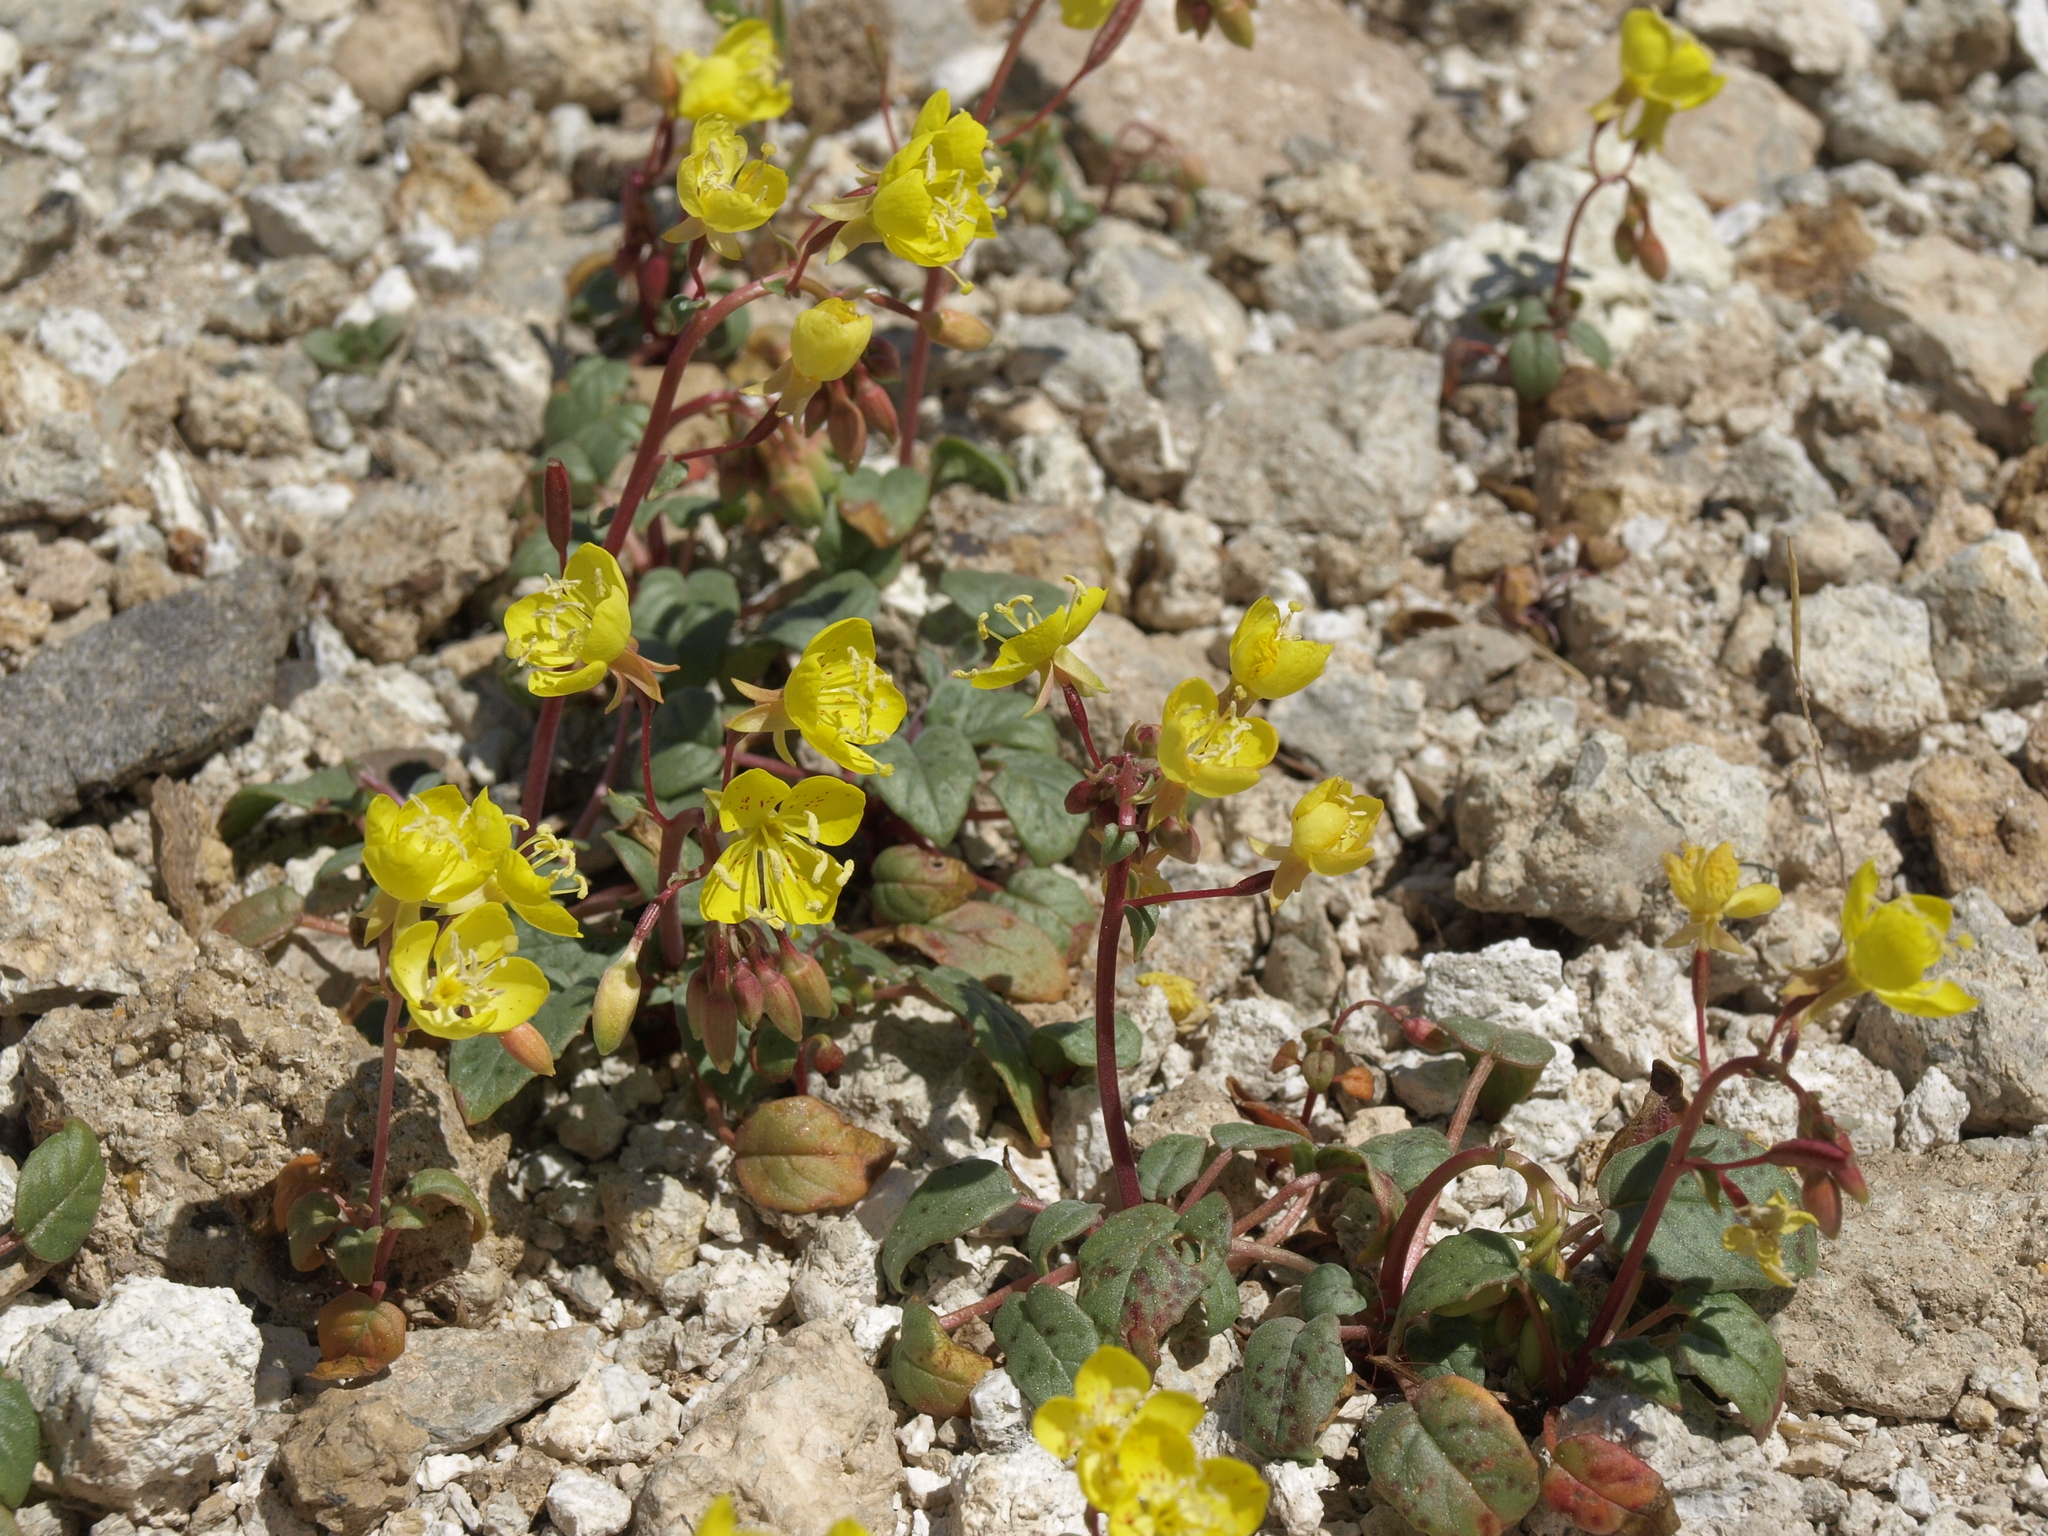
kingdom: Plantae
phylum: Tracheophyta
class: Magnoliopsida
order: Myrtales
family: Onagraceae
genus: Chylismia
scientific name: Chylismia claviformis
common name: Browneyes
